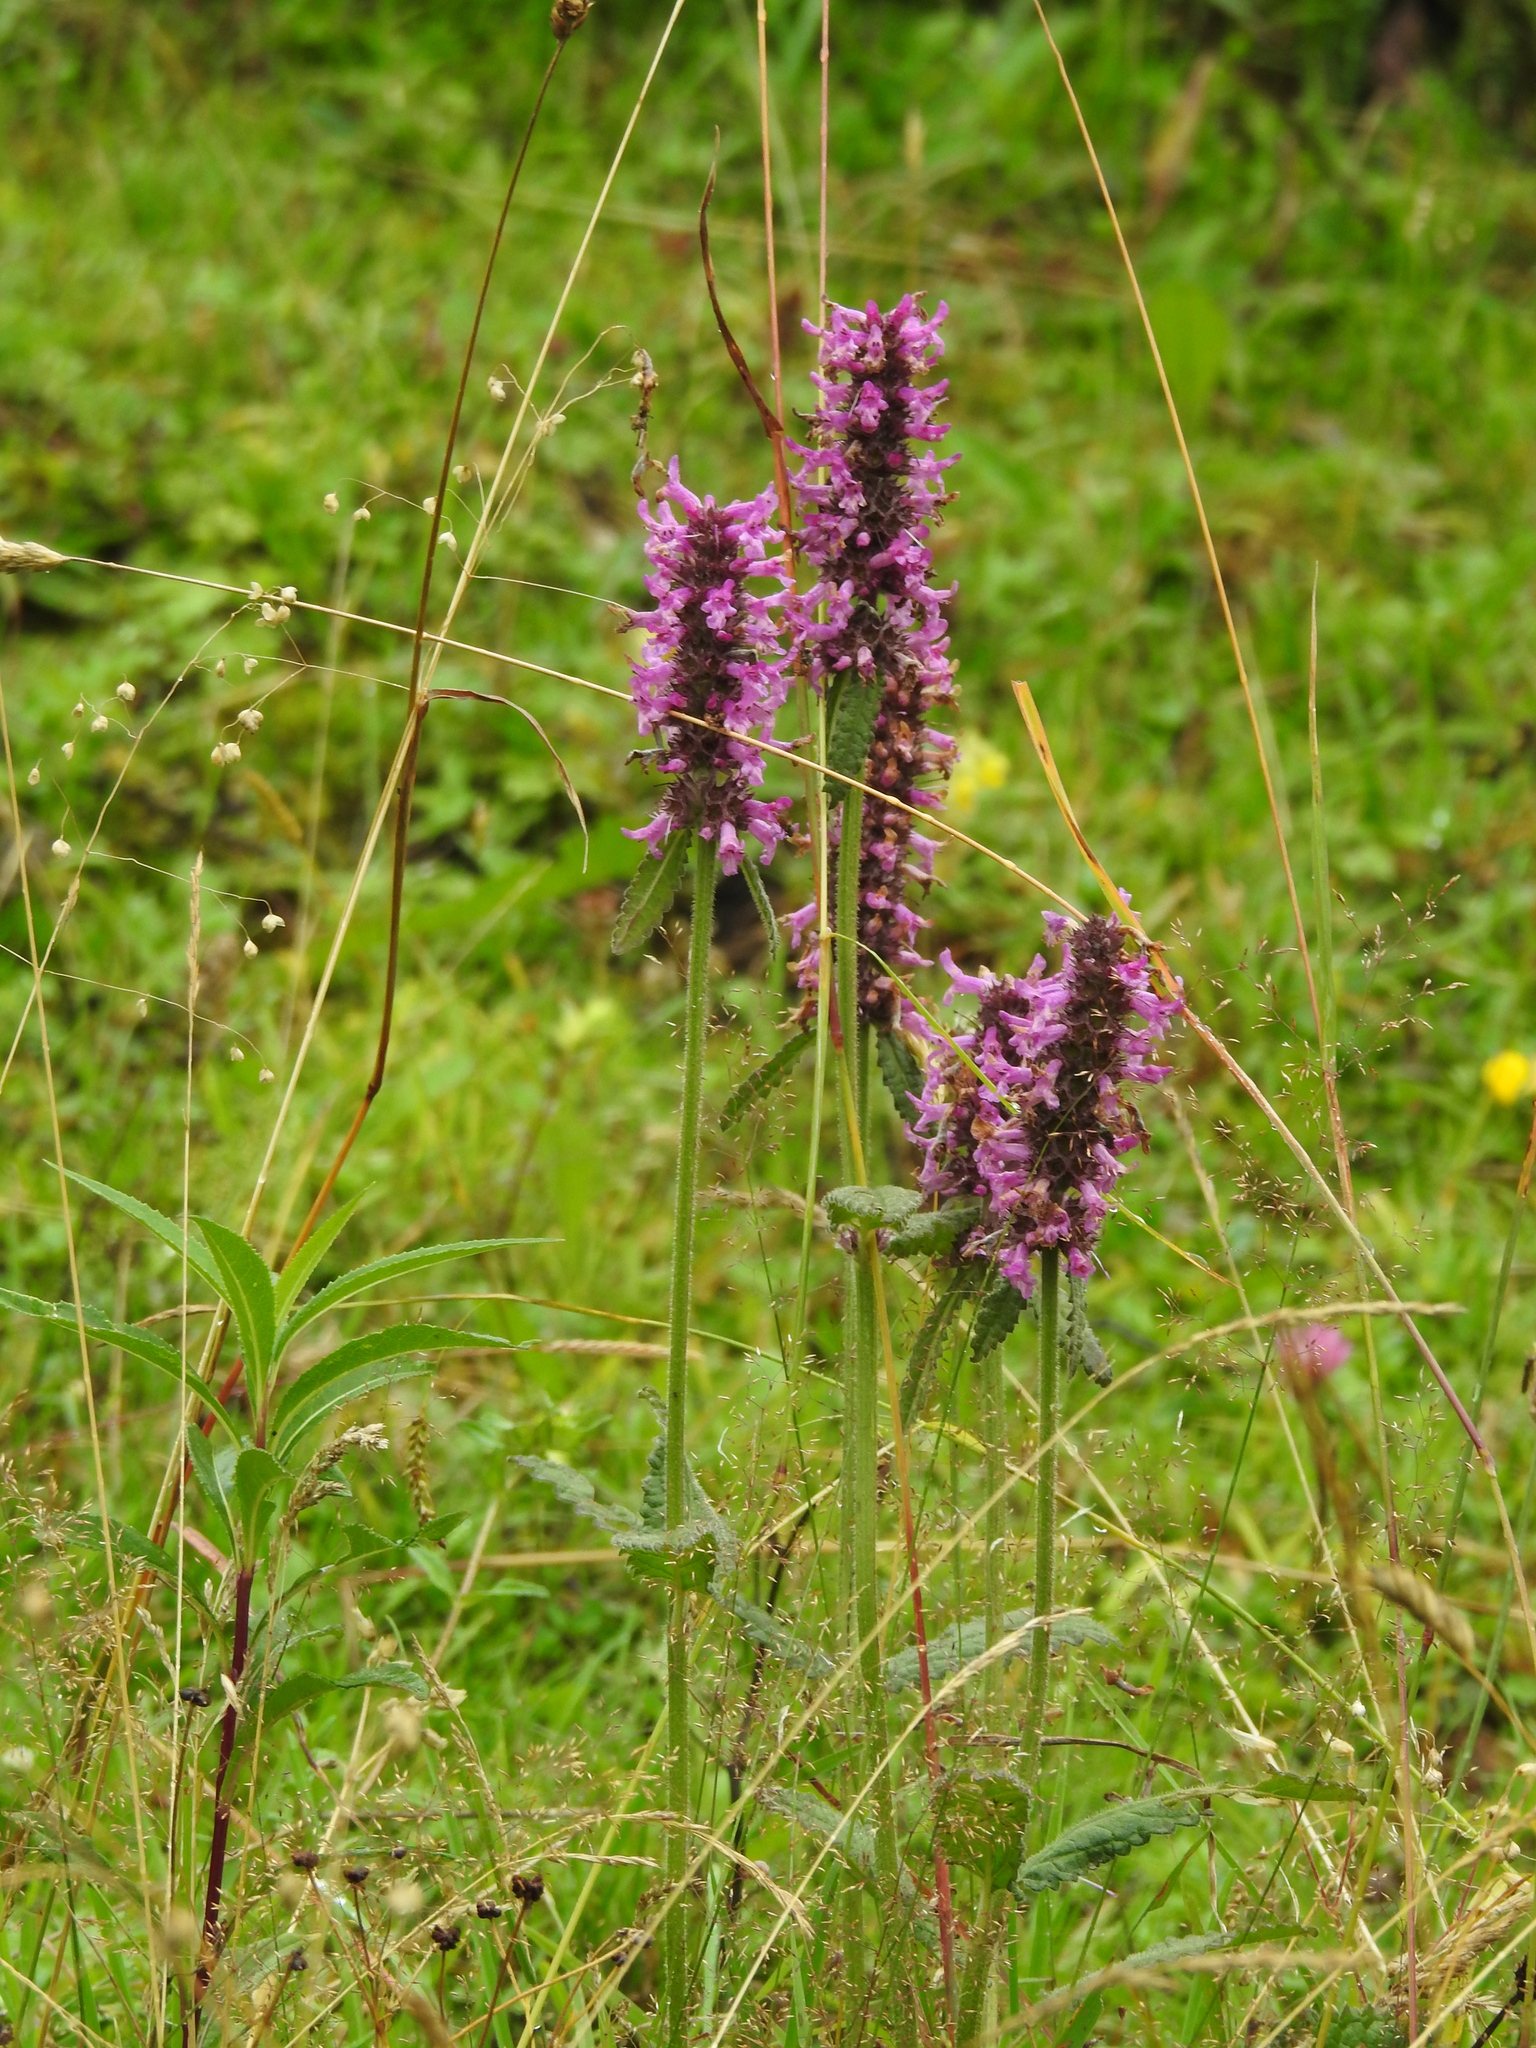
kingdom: Plantae
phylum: Tracheophyta
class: Magnoliopsida
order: Lamiales
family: Lamiaceae
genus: Betonica
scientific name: Betonica officinalis
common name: Bishop's-wort
